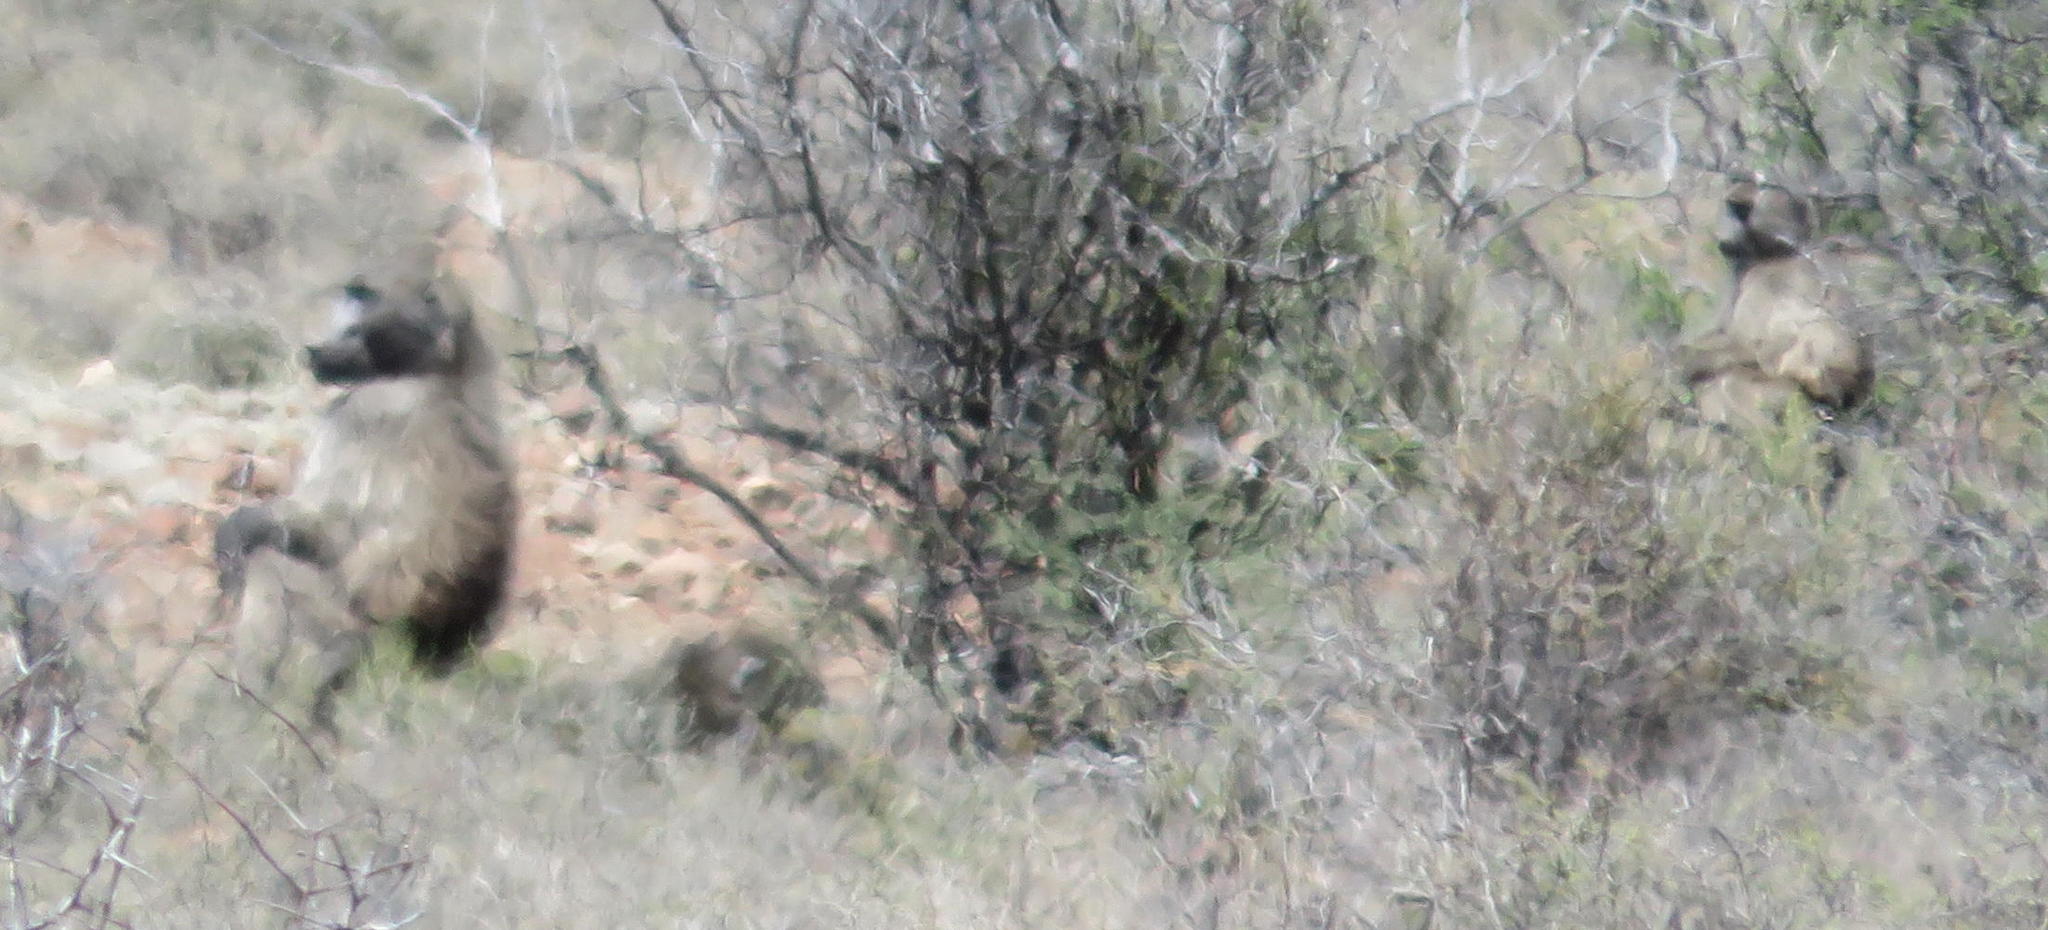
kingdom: Animalia
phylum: Chordata
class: Mammalia
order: Primates
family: Cercopithecidae
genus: Papio
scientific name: Papio ursinus
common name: Chacma baboon
